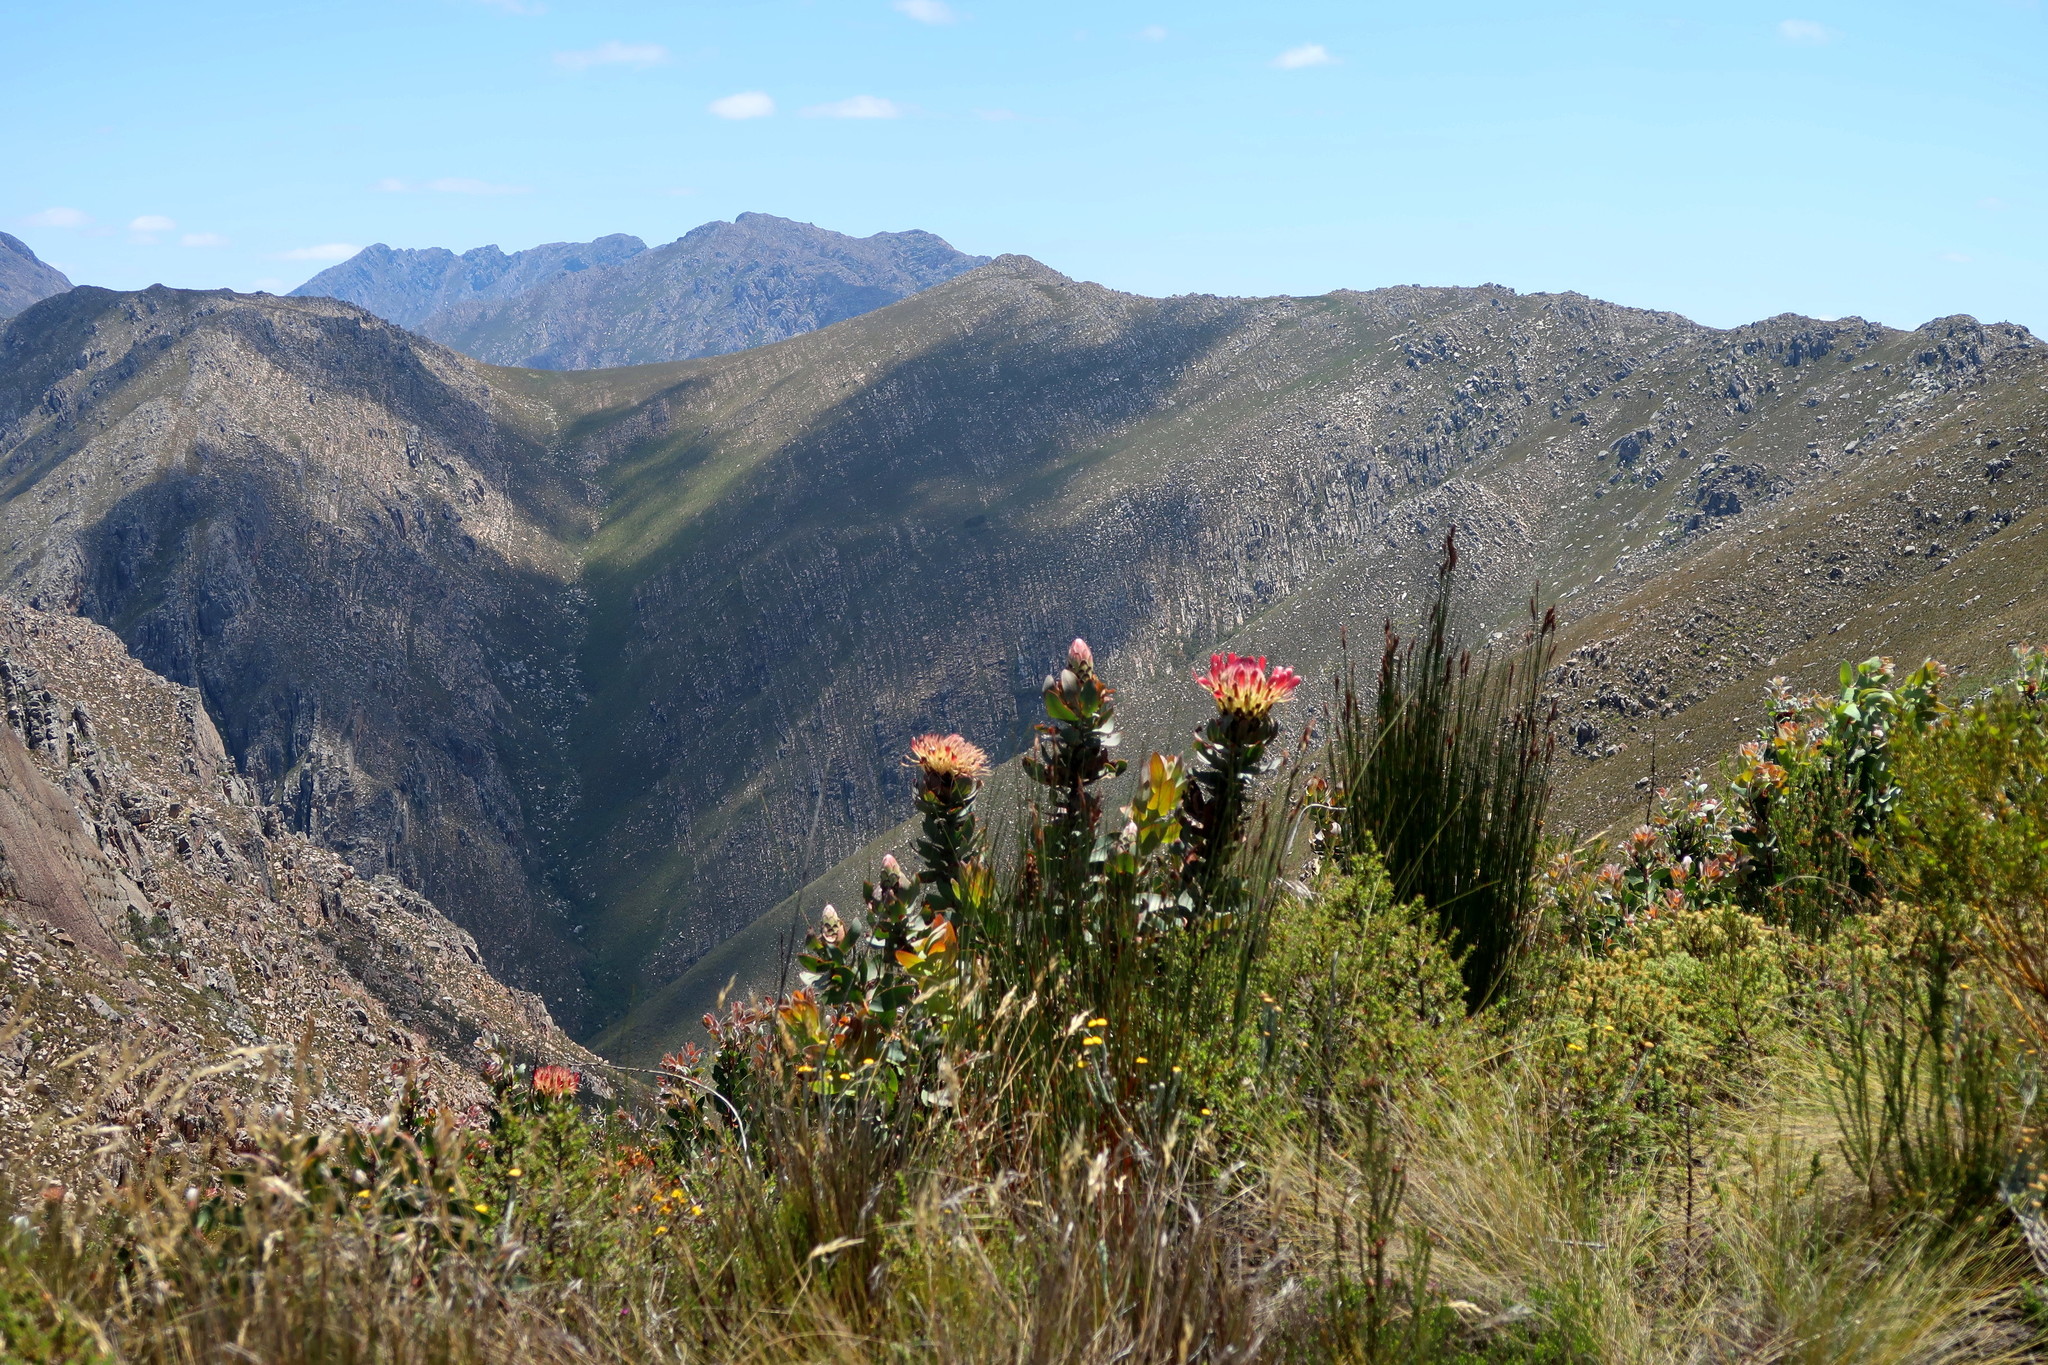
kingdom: Plantae
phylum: Tracheophyta
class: Magnoliopsida
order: Proteales
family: Proteaceae
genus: Protea
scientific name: Protea eximia
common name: Broad-leaved sugarbush
